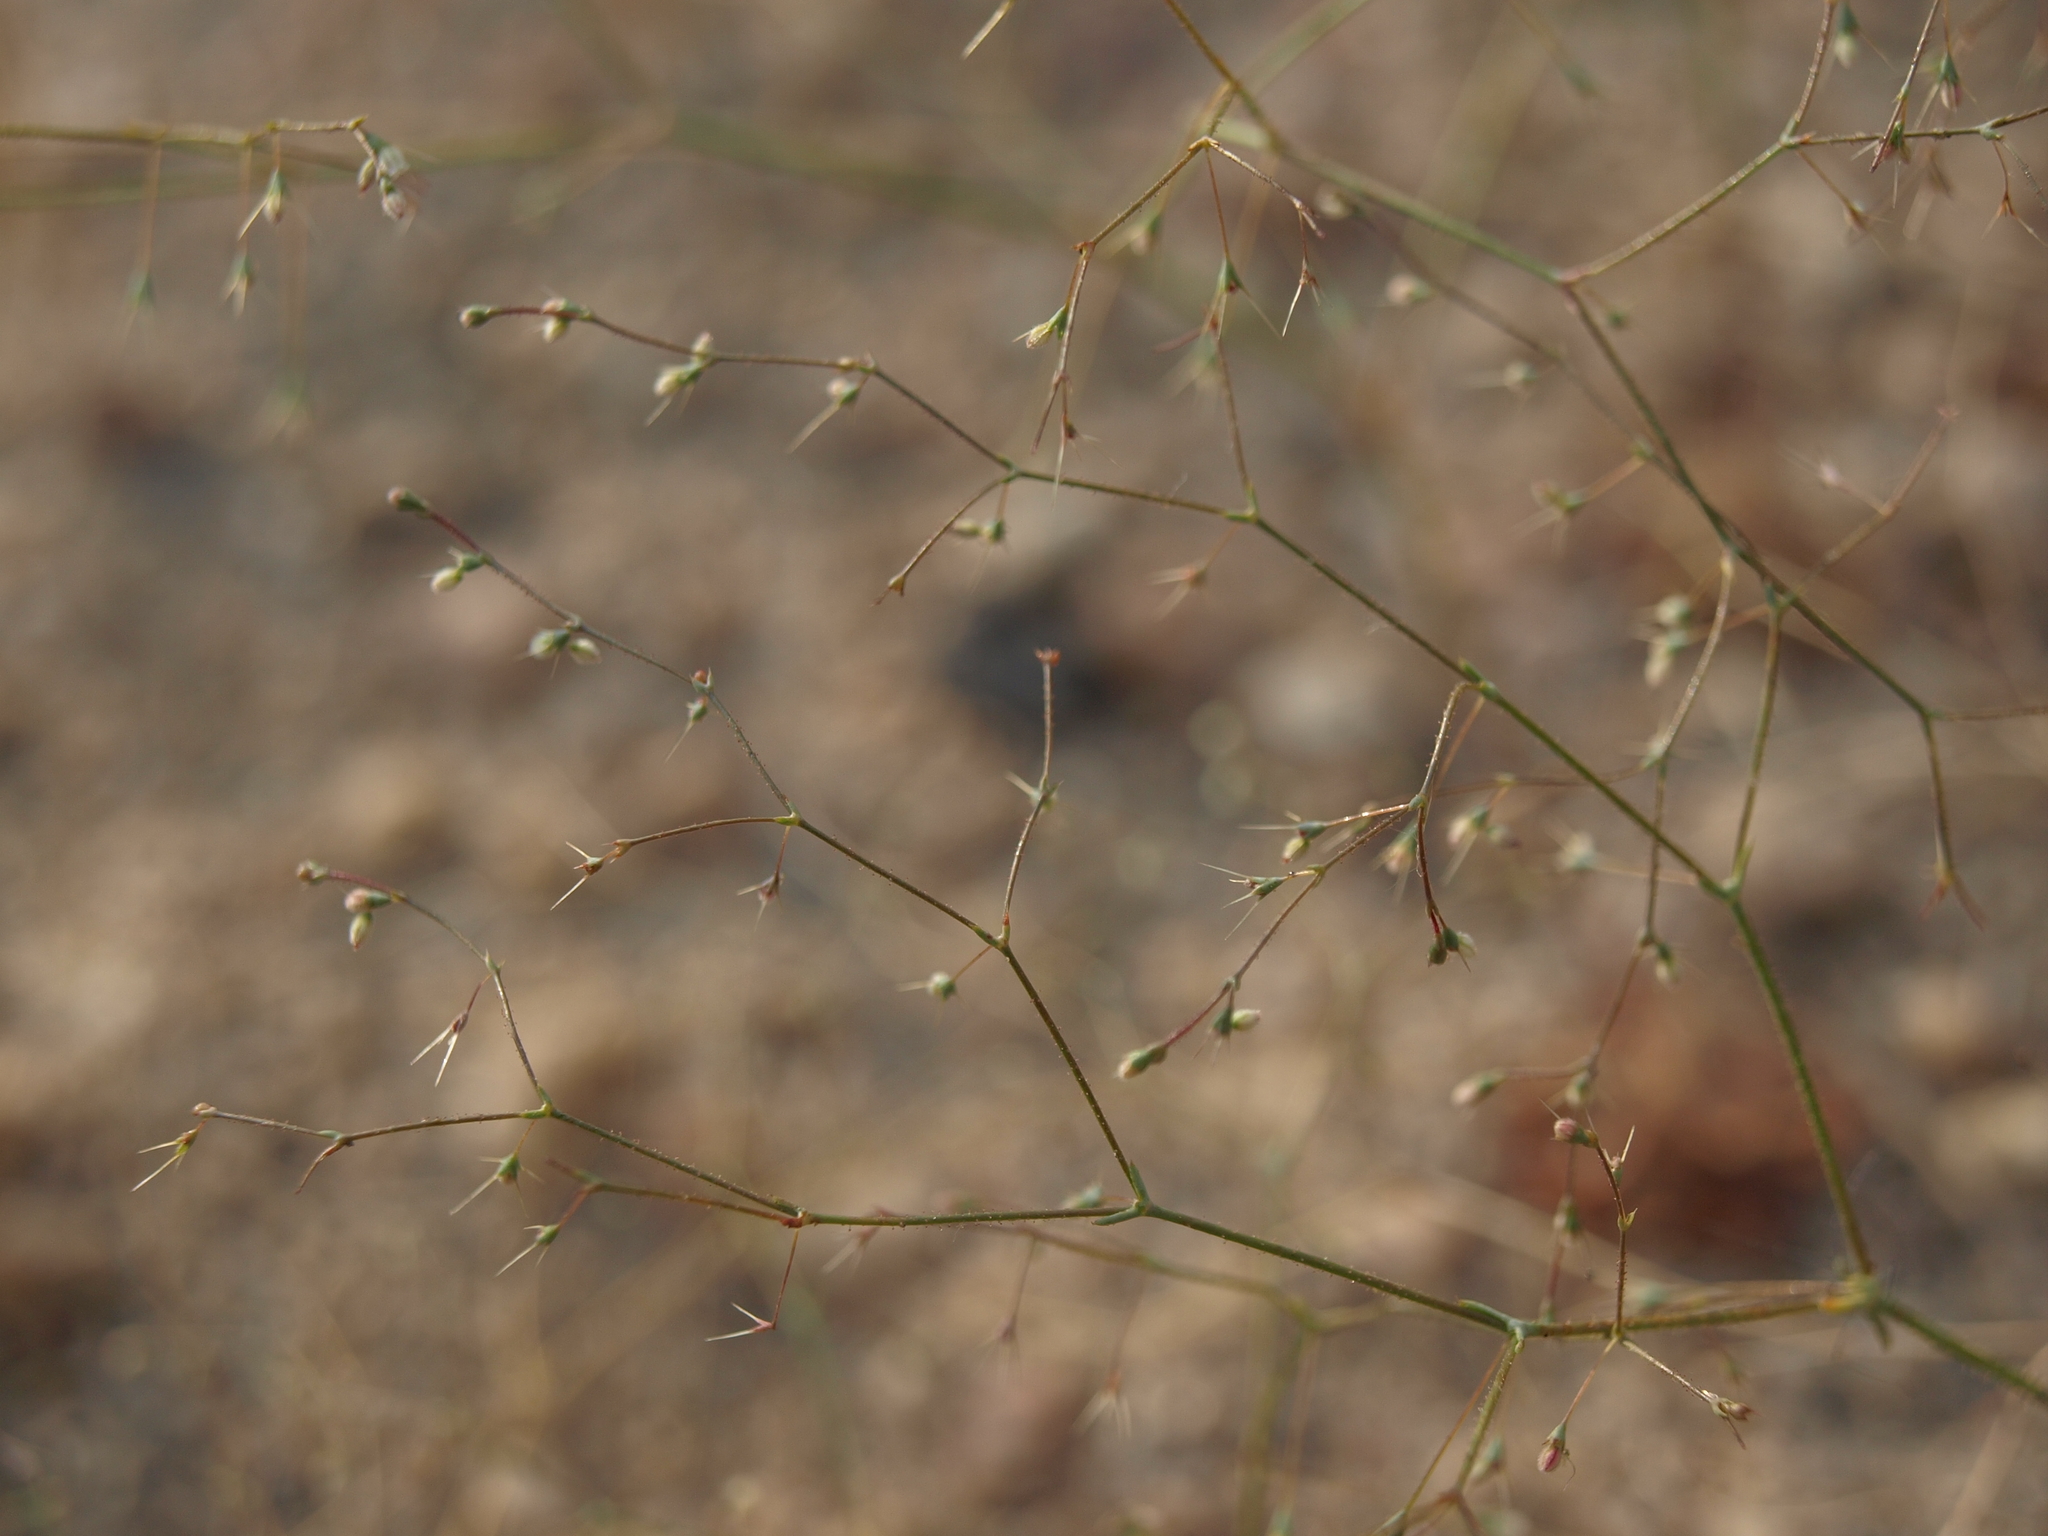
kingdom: Plantae
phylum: Tracheophyta
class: Magnoliopsida
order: Caryophyllales
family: Polygonaceae
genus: Oxytheca
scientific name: Oxytheca dendroidea
